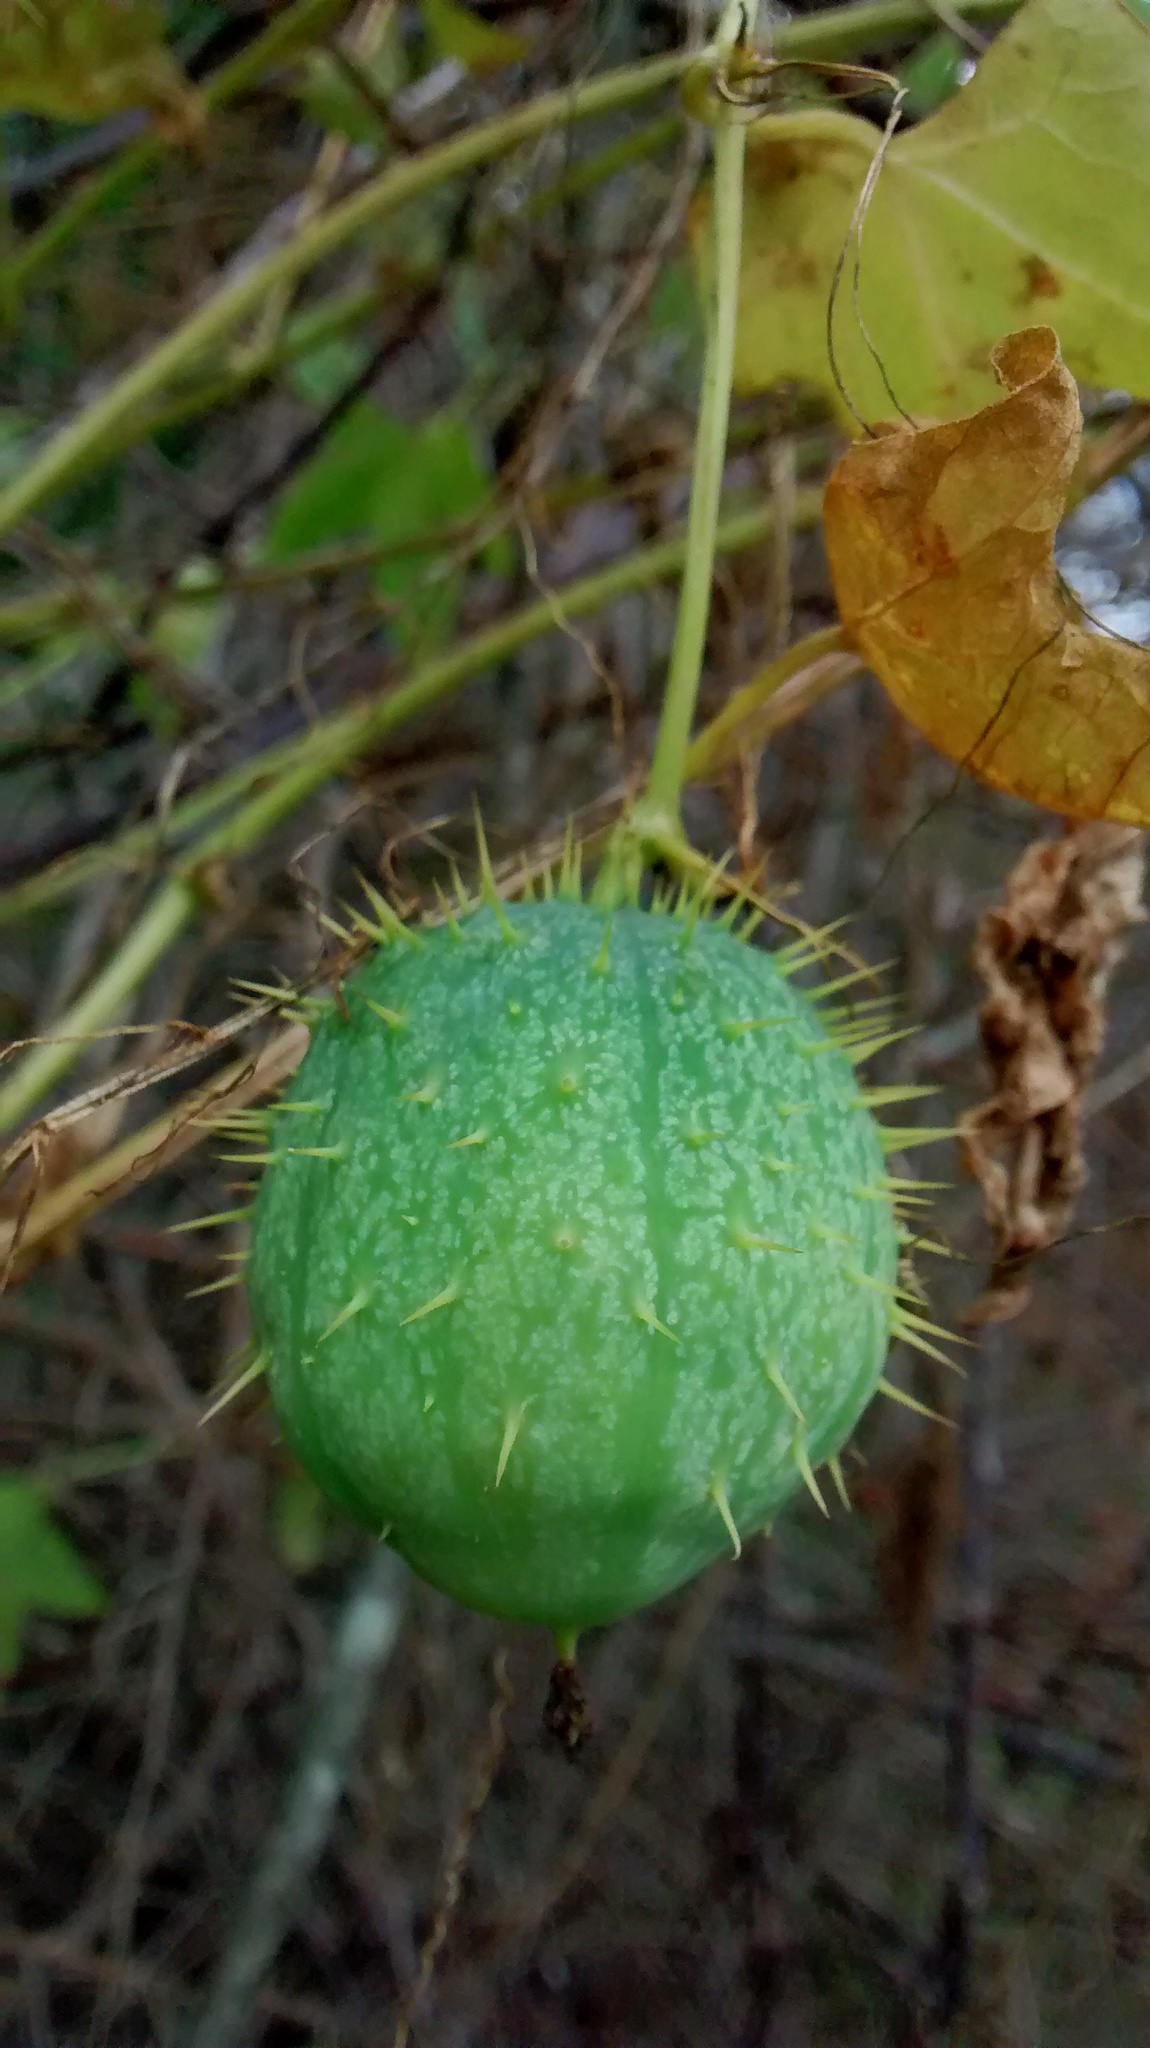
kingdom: Plantae
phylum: Tracheophyta
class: Magnoliopsida
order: Cucurbitales
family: Cucurbitaceae
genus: Echinocystis
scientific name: Echinocystis lobata
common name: Wild cucumber
